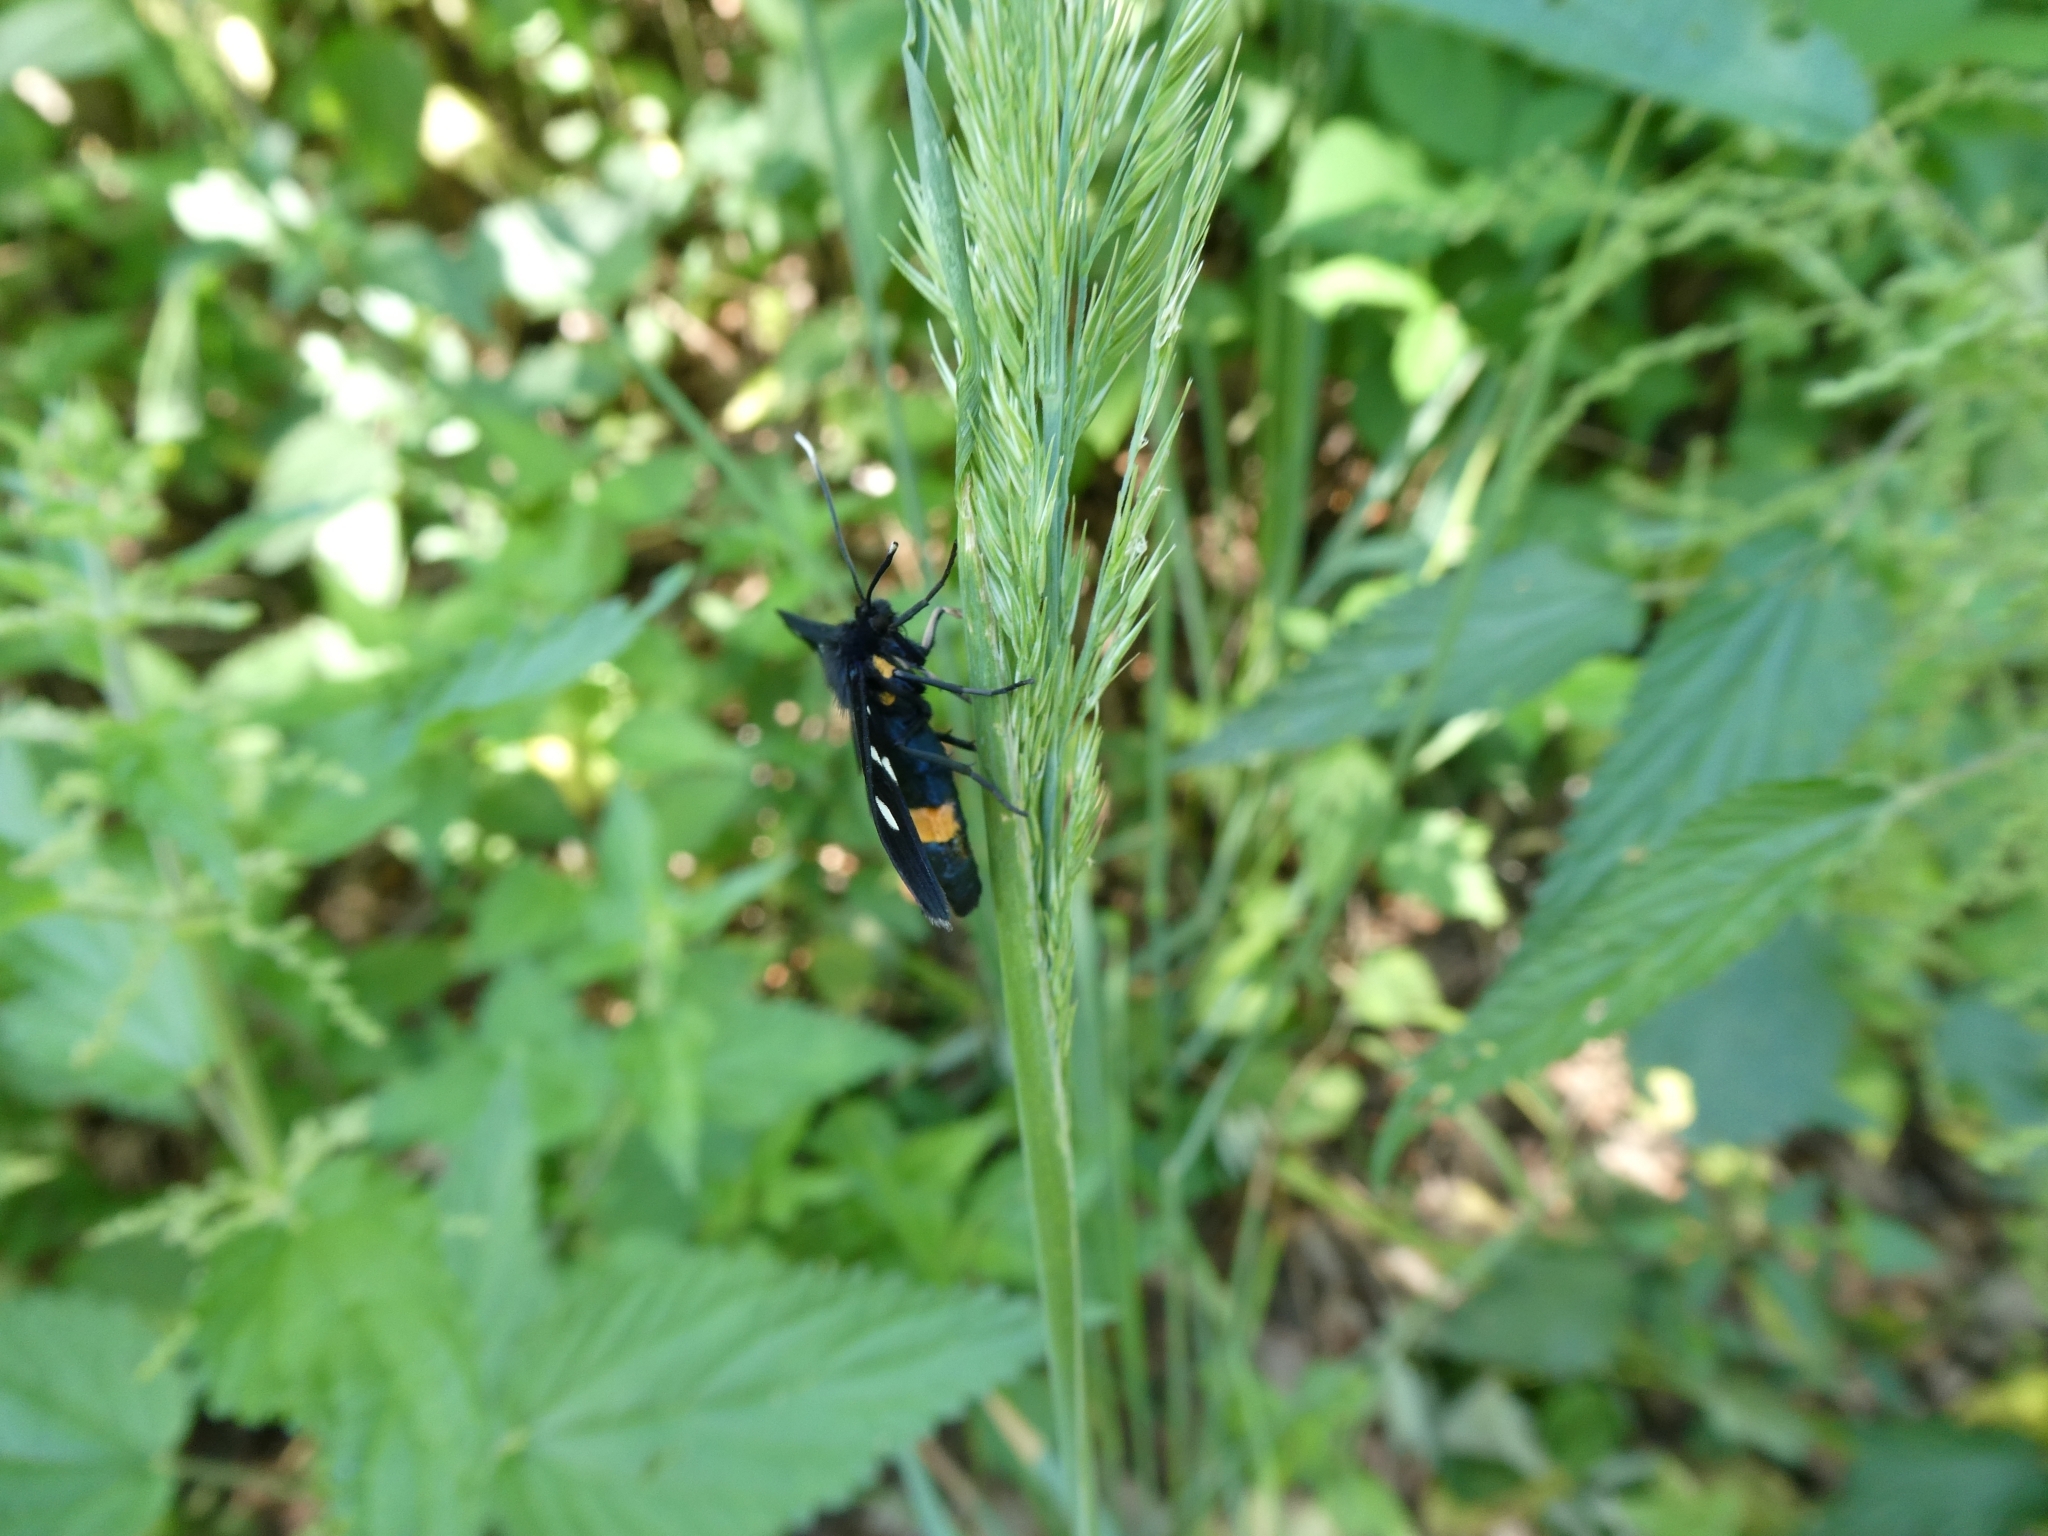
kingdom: Animalia
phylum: Arthropoda
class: Insecta
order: Lepidoptera
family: Erebidae
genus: Amata
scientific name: Amata phegea
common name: Nine-spotted
